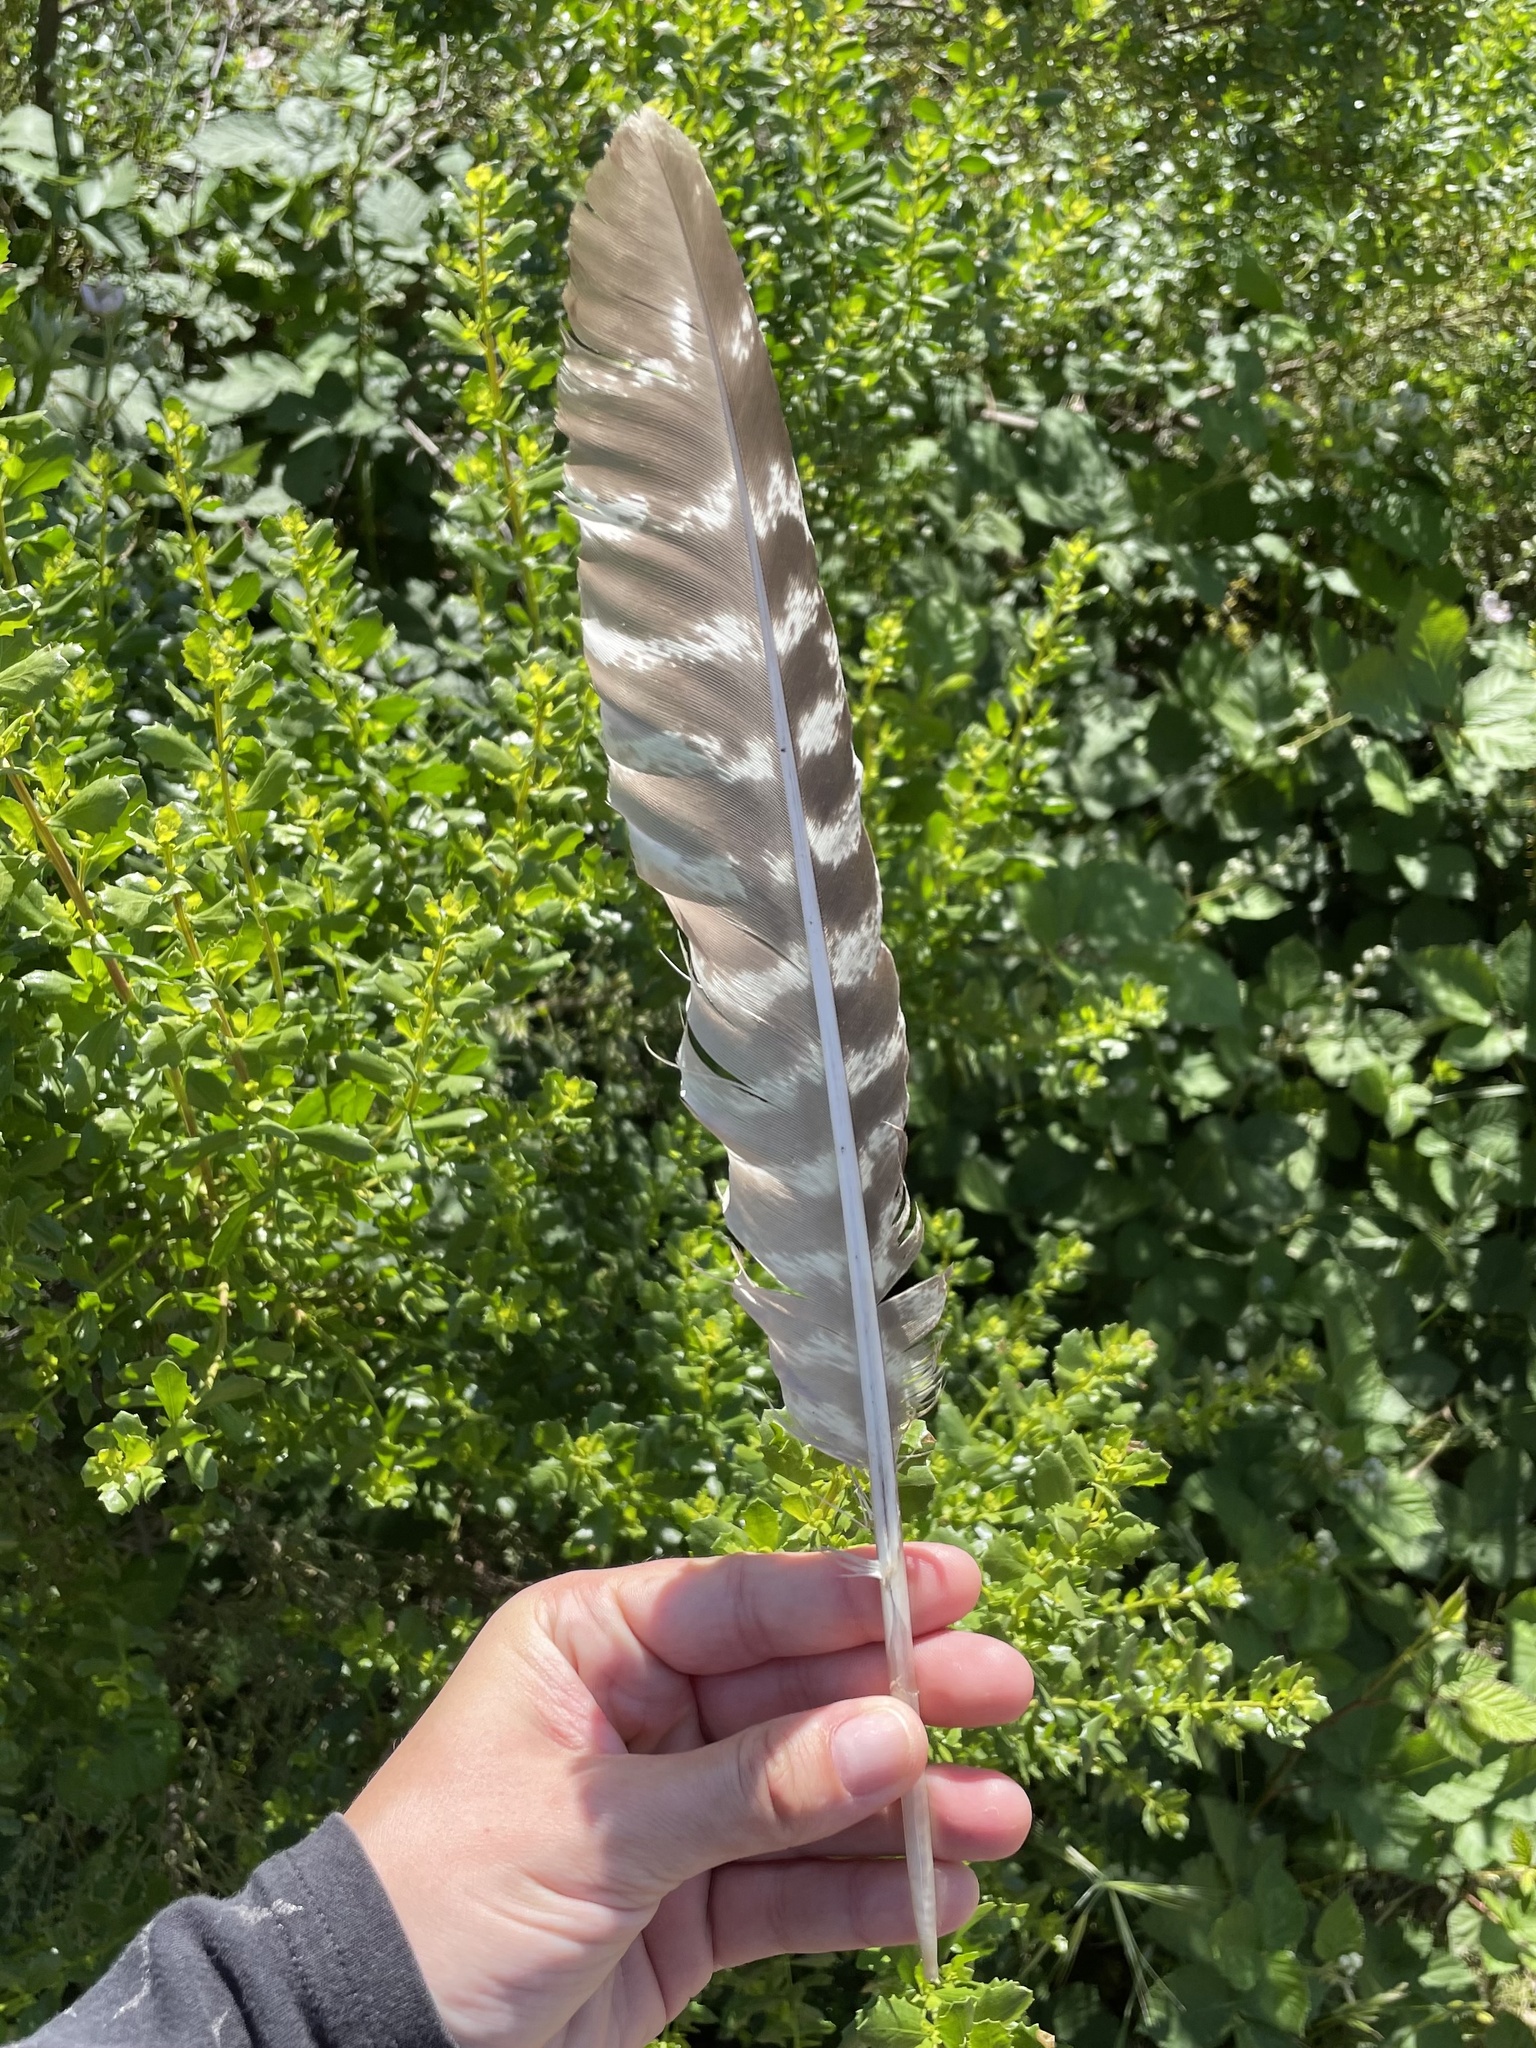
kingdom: Animalia
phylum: Chordata
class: Aves
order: Galliformes
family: Phasianidae
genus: Meleagris
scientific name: Meleagris gallopavo
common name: Wild turkey
